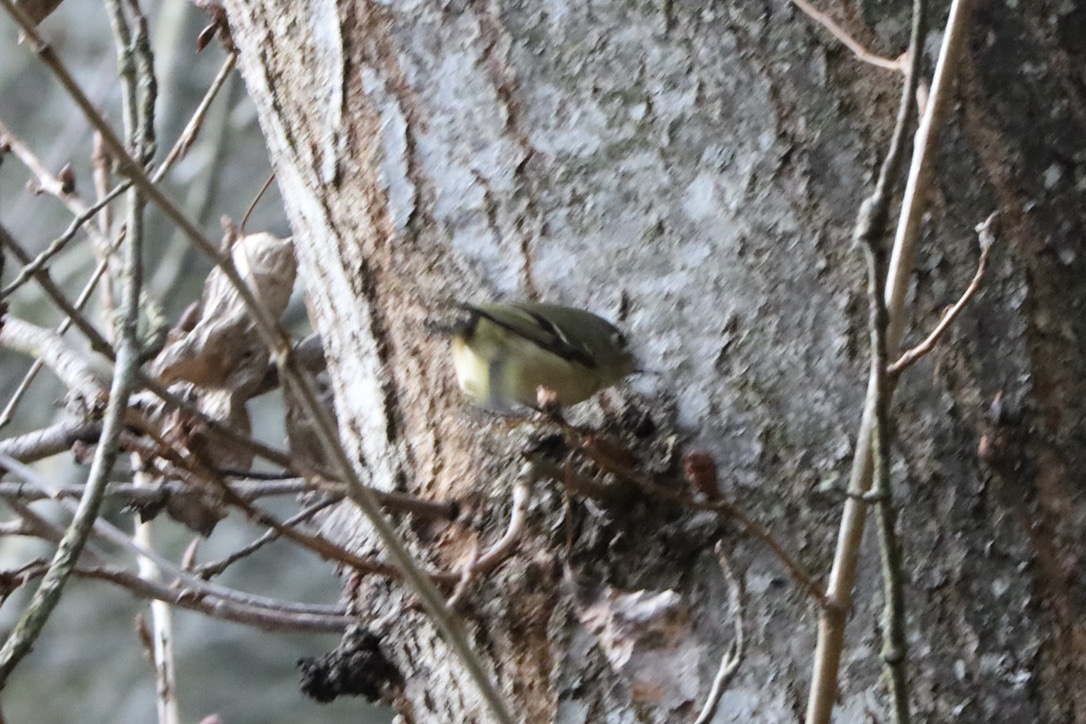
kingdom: Animalia
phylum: Chordata
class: Aves
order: Passeriformes
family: Regulidae
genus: Regulus
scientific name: Regulus calendula
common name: Ruby-crowned kinglet
